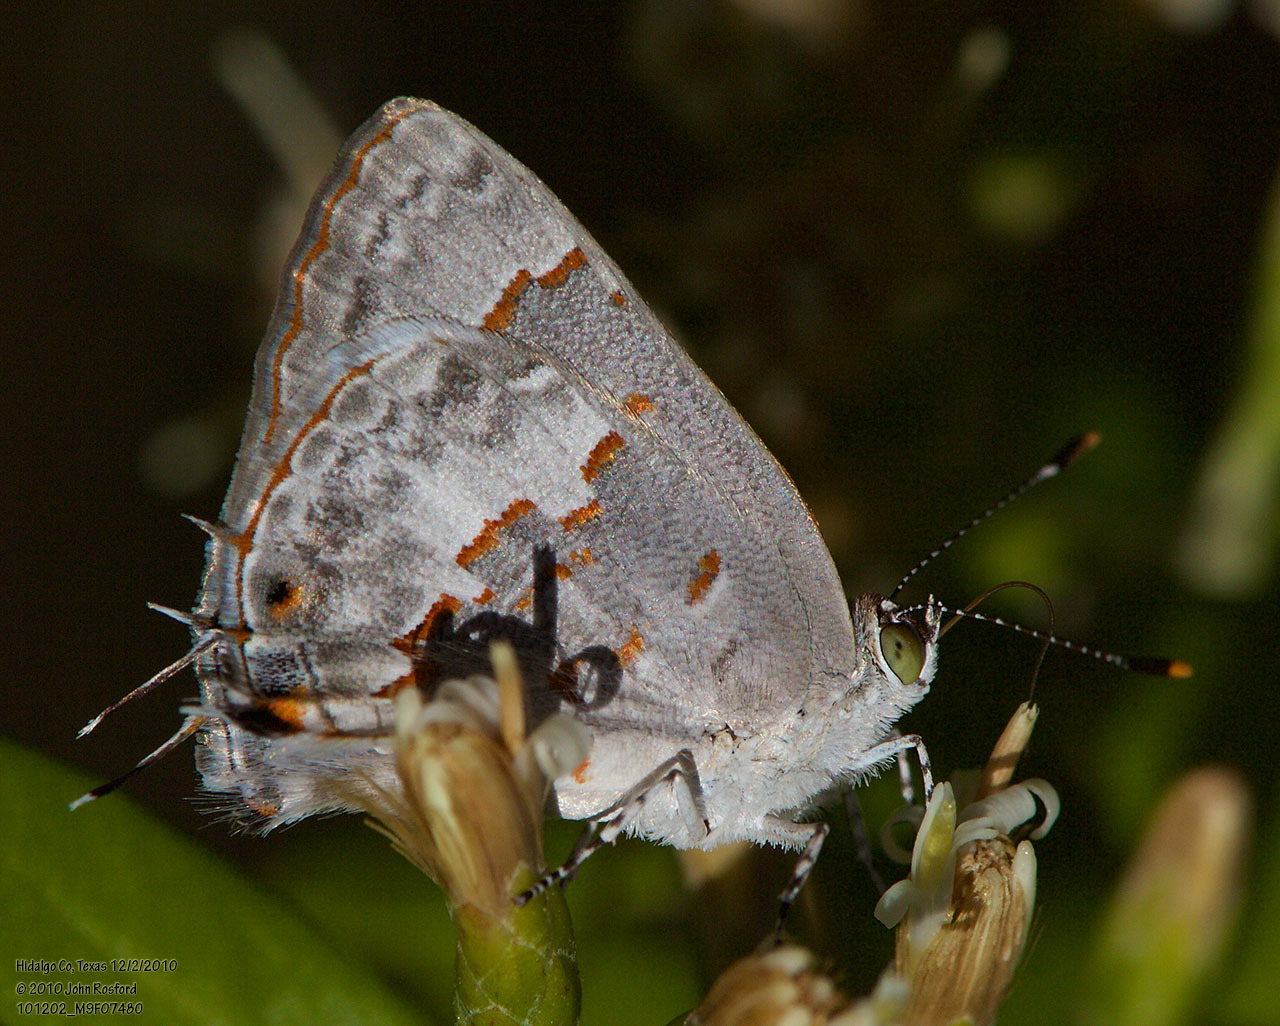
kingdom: Animalia
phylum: Arthropoda
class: Insecta
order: Lepidoptera
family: Lycaenidae
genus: Ministrymon
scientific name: Ministrymon clytie
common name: Clytie ministreak
